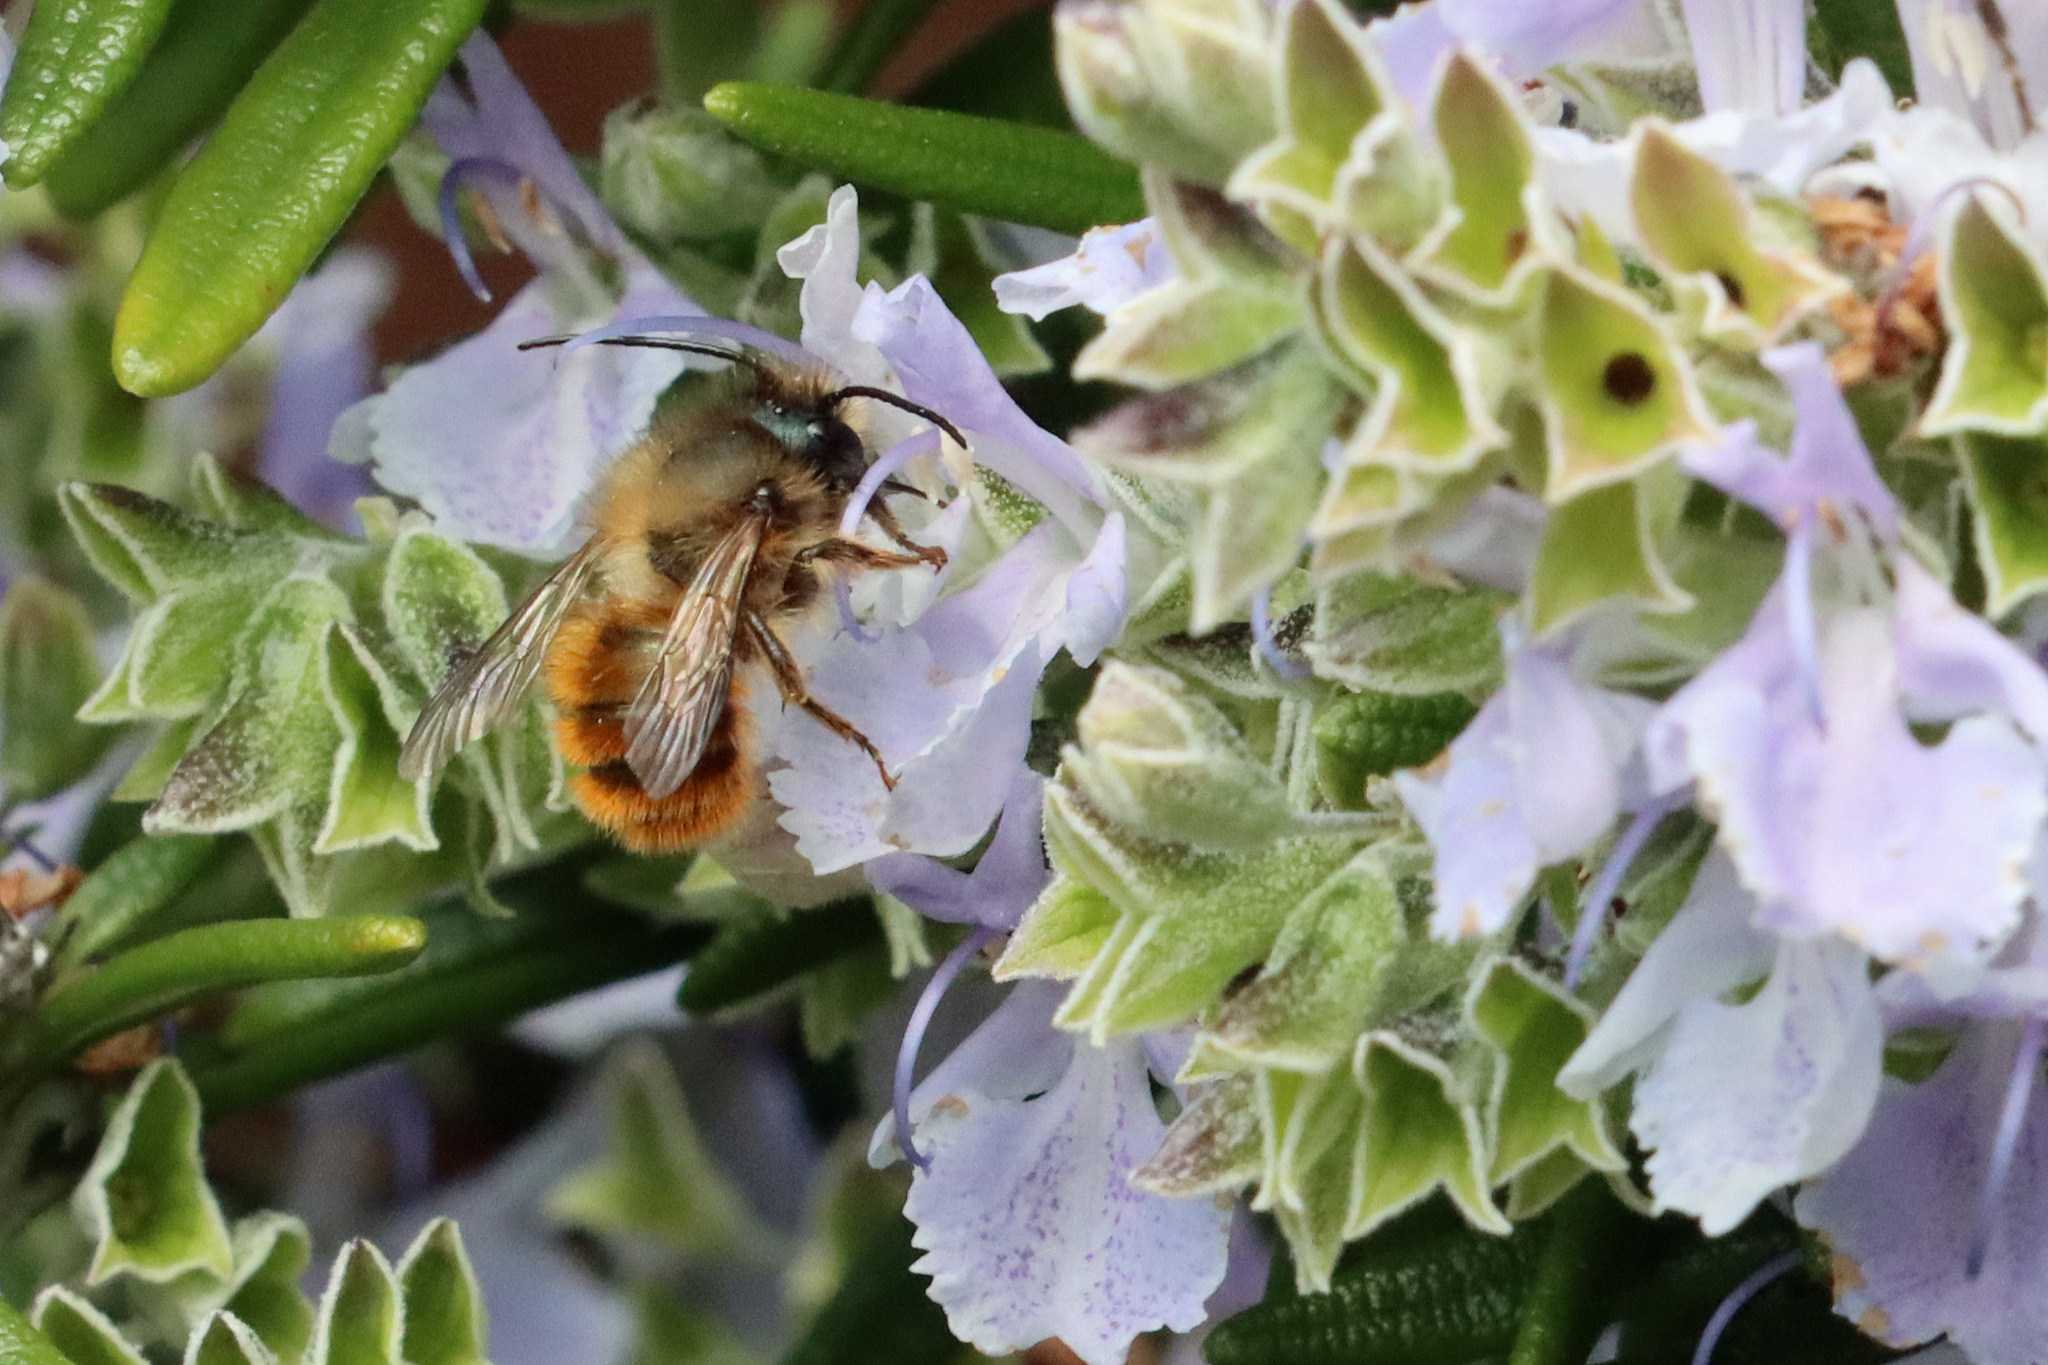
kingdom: Animalia
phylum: Arthropoda
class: Insecta
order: Hymenoptera
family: Megachilidae
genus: Osmia
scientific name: Osmia bicornis
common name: Red mason bee
